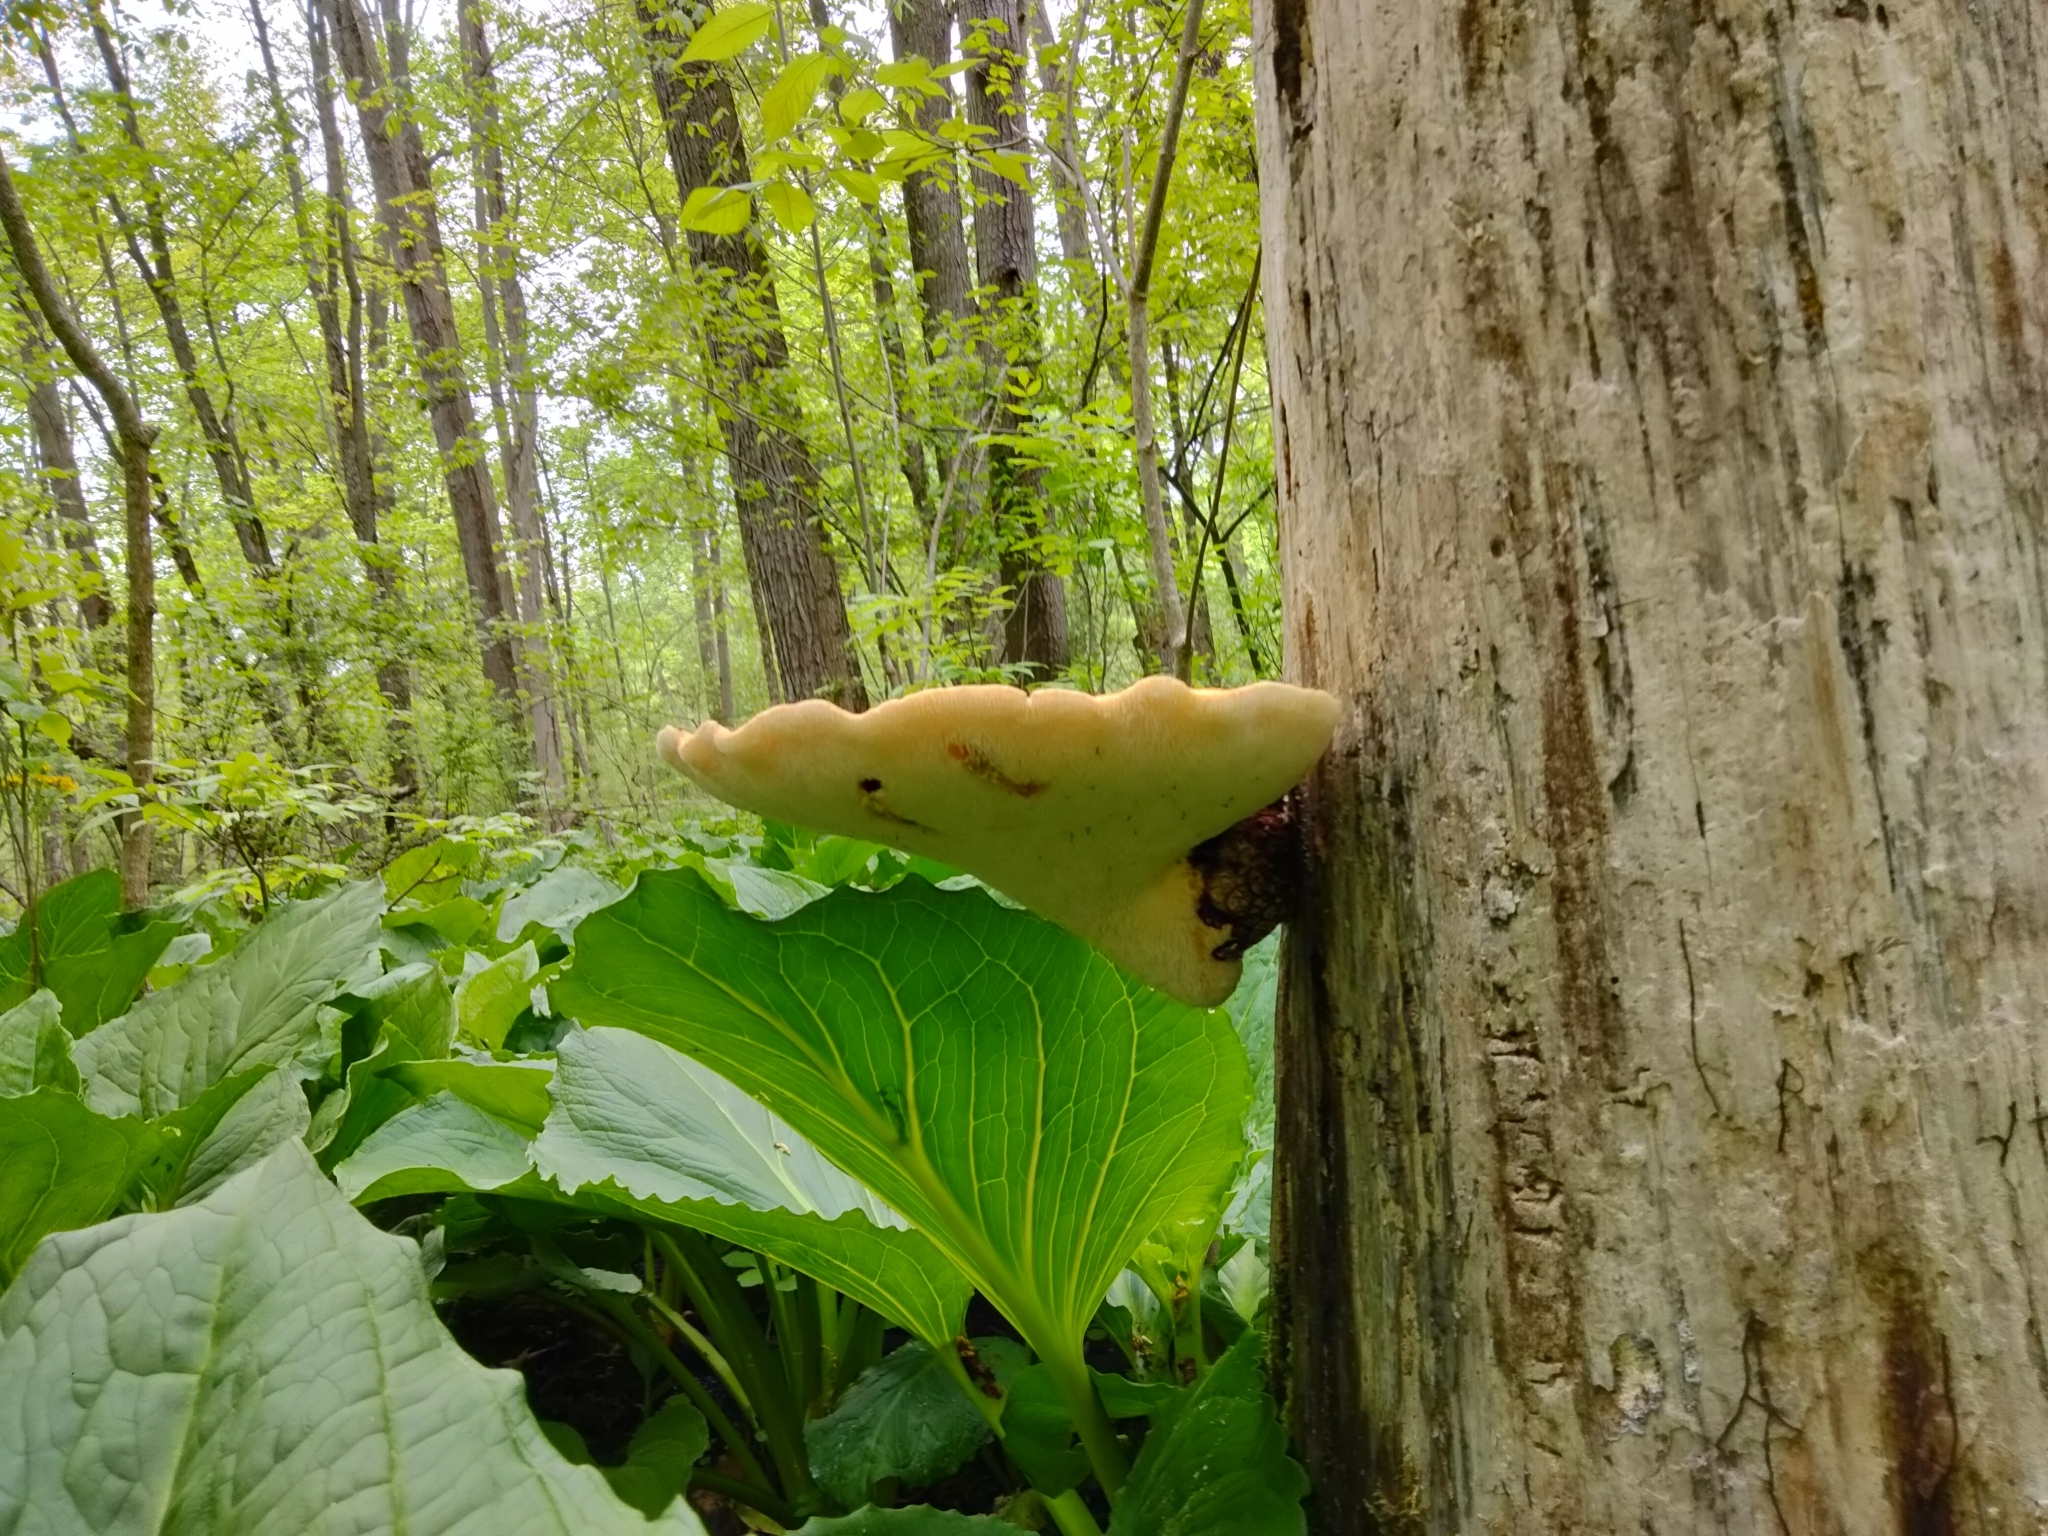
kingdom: Fungi
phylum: Basidiomycota
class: Agaricomycetes
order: Polyporales
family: Polyporaceae
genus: Cerioporus
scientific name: Cerioporus squamosus
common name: Dryad's saddle
